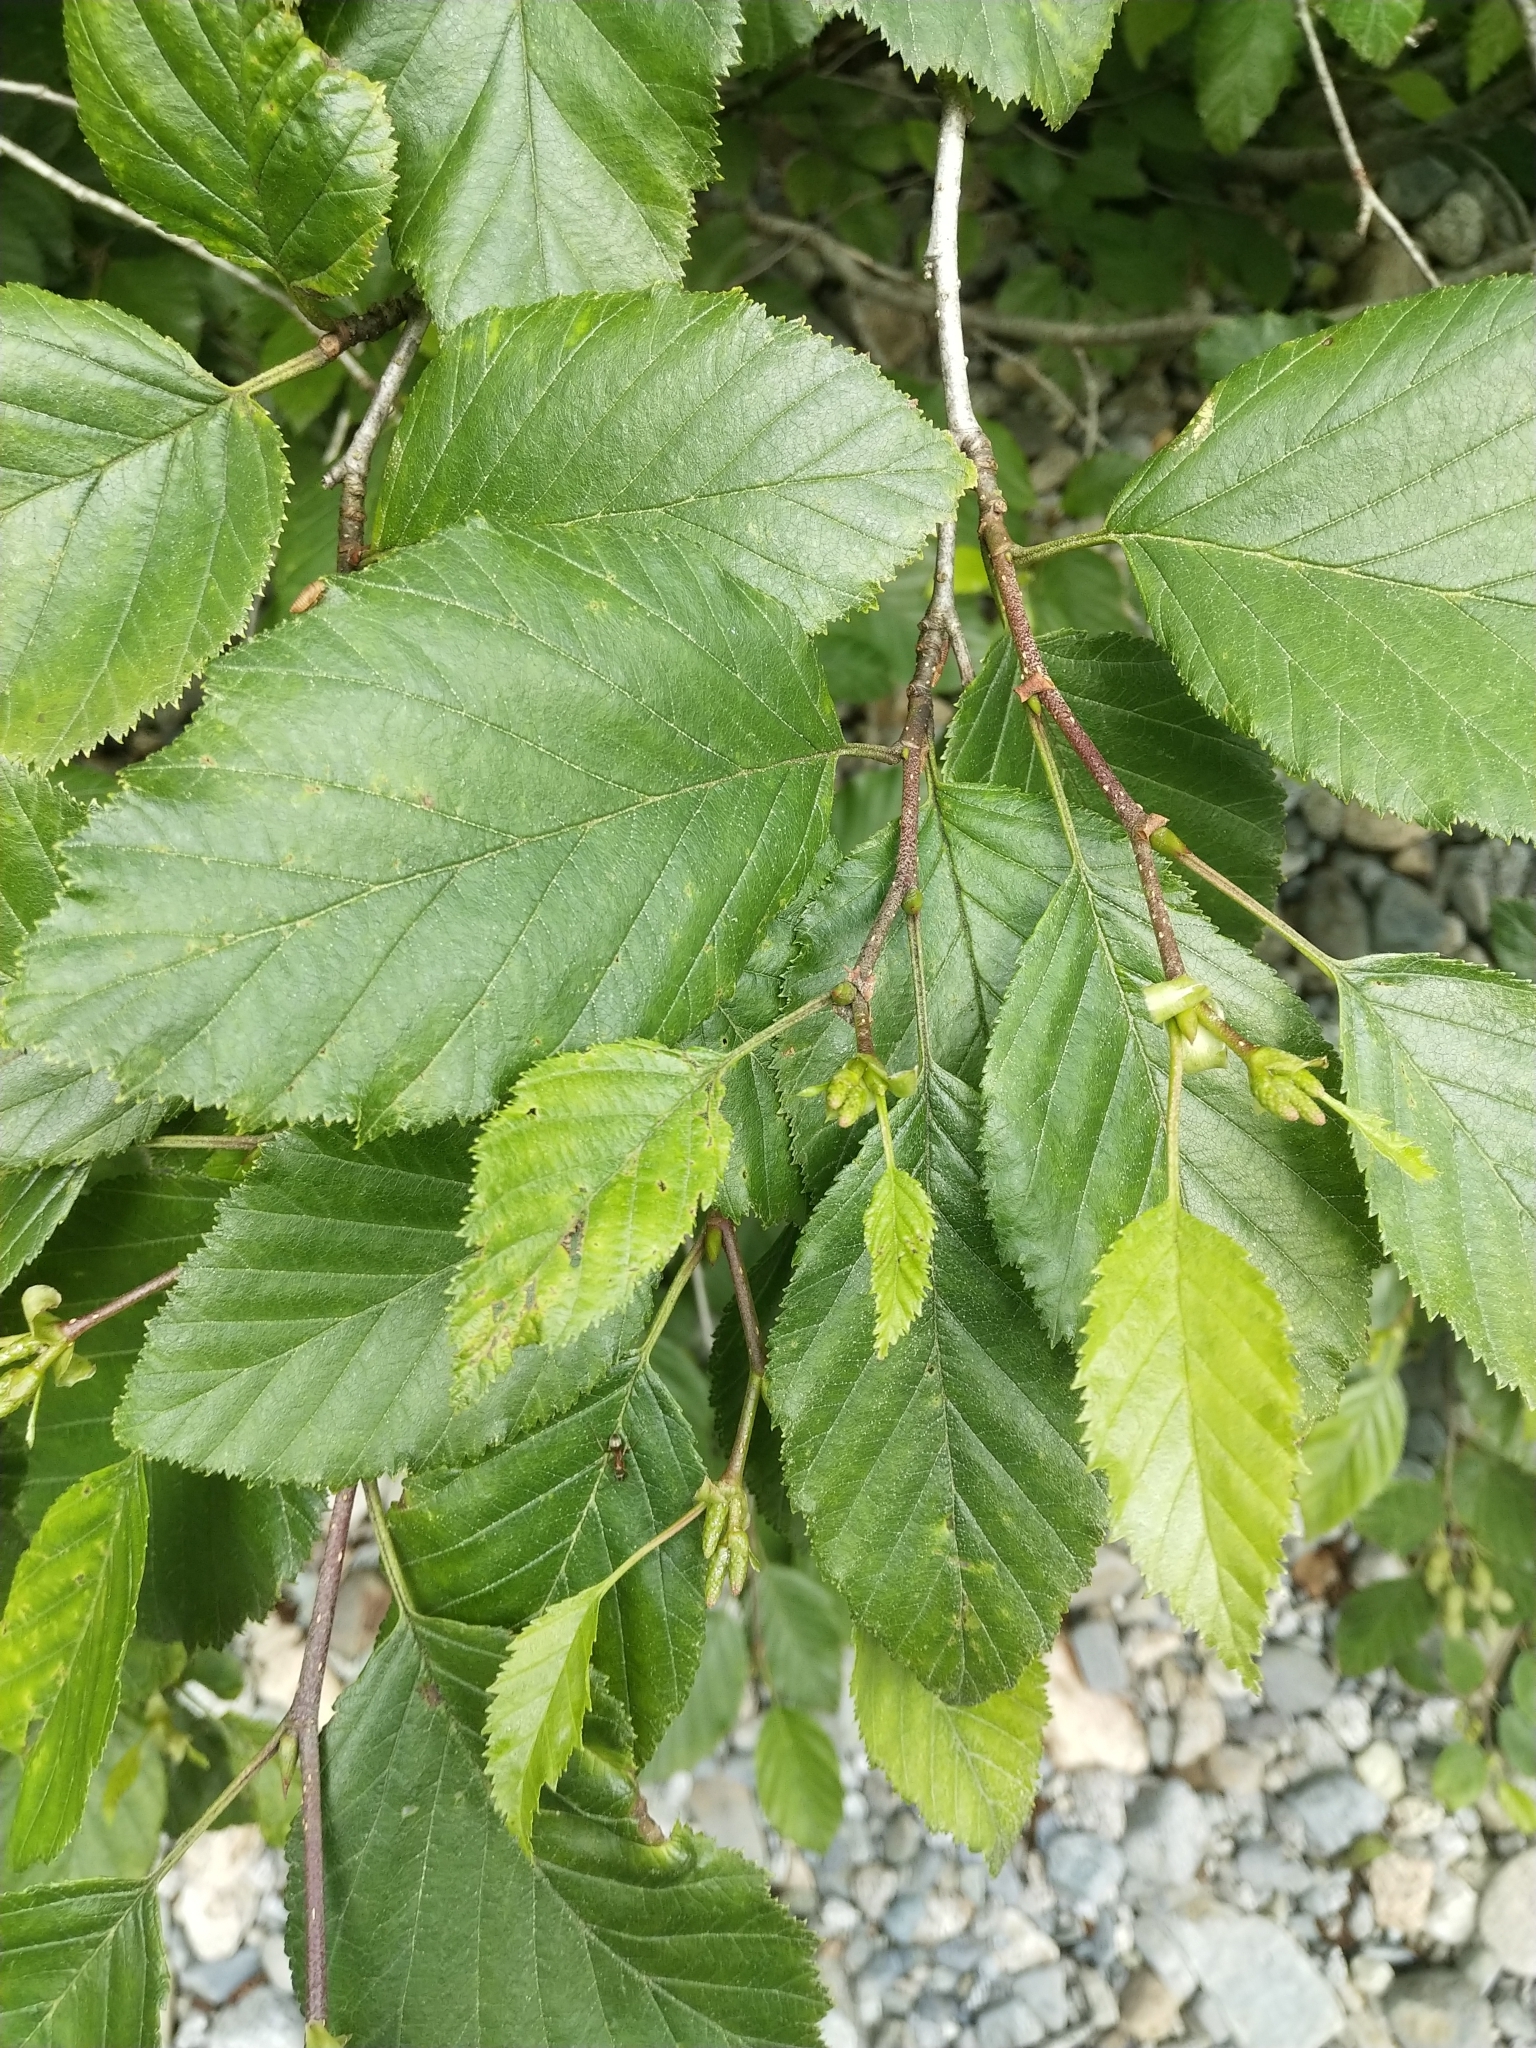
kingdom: Plantae
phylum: Tracheophyta
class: Magnoliopsida
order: Fagales
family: Betulaceae
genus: Alnus
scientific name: Alnus alnobetula
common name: Green alder
